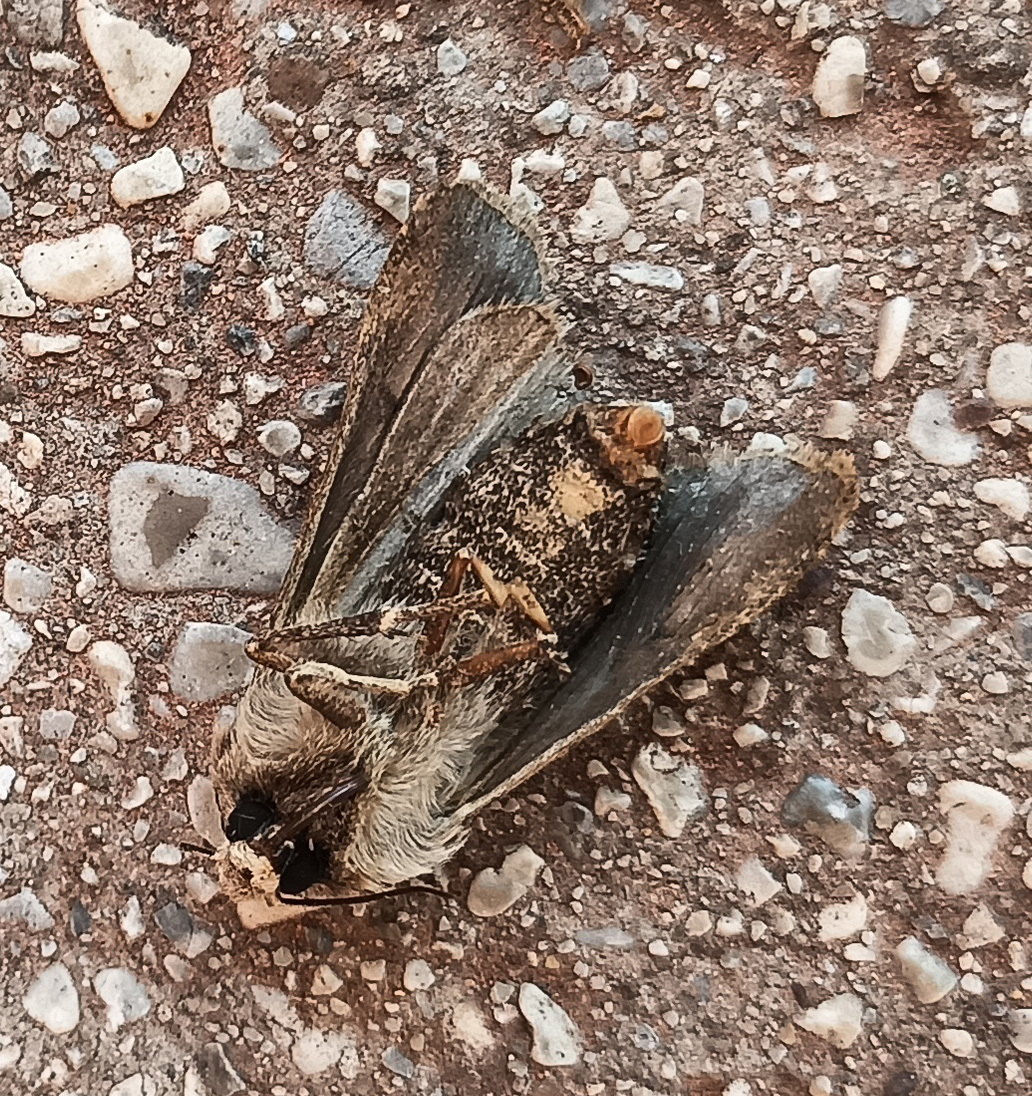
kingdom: Animalia
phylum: Arthropoda
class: Insecta
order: Lepidoptera
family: Noctuidae
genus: Agrotis
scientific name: Agrotis exclamationis
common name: Heart and dart
